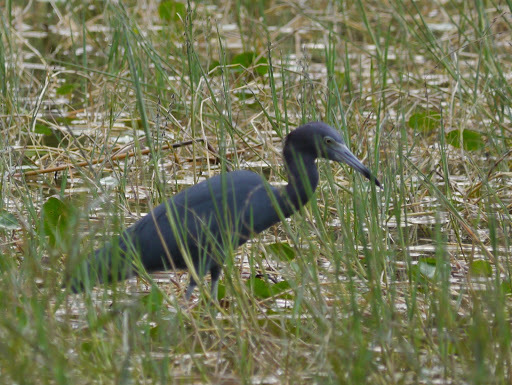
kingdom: Animalia
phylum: Chordata
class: Aves
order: Pelecaniformes
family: Ardeidae
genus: Egretta
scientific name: Egretta caerulea
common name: Little blue heron
